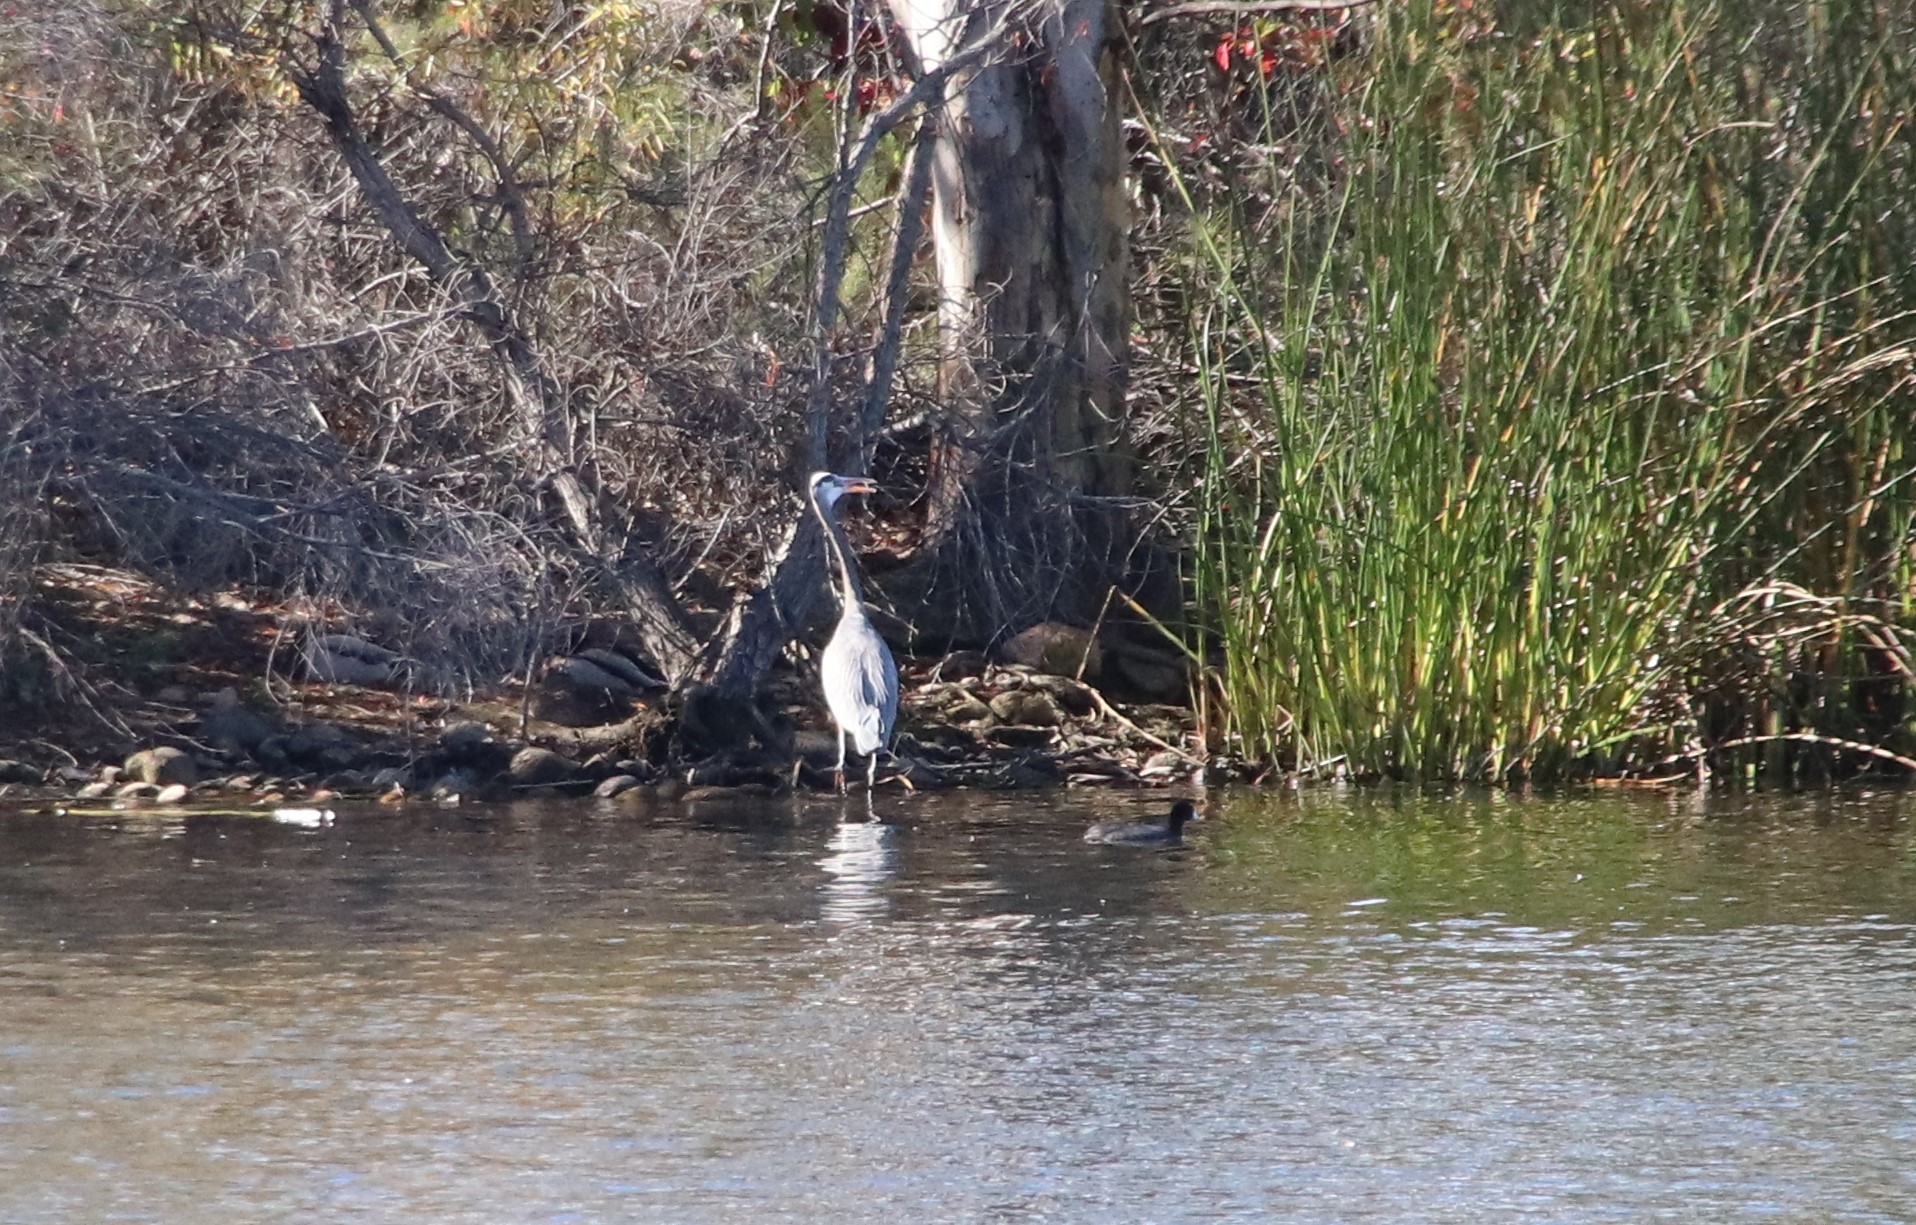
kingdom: Animalia
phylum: Chordata
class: Aves
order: Pelecaniformes
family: Ardeidae
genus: Ardea
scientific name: Ardea herodias
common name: Great blue heron
